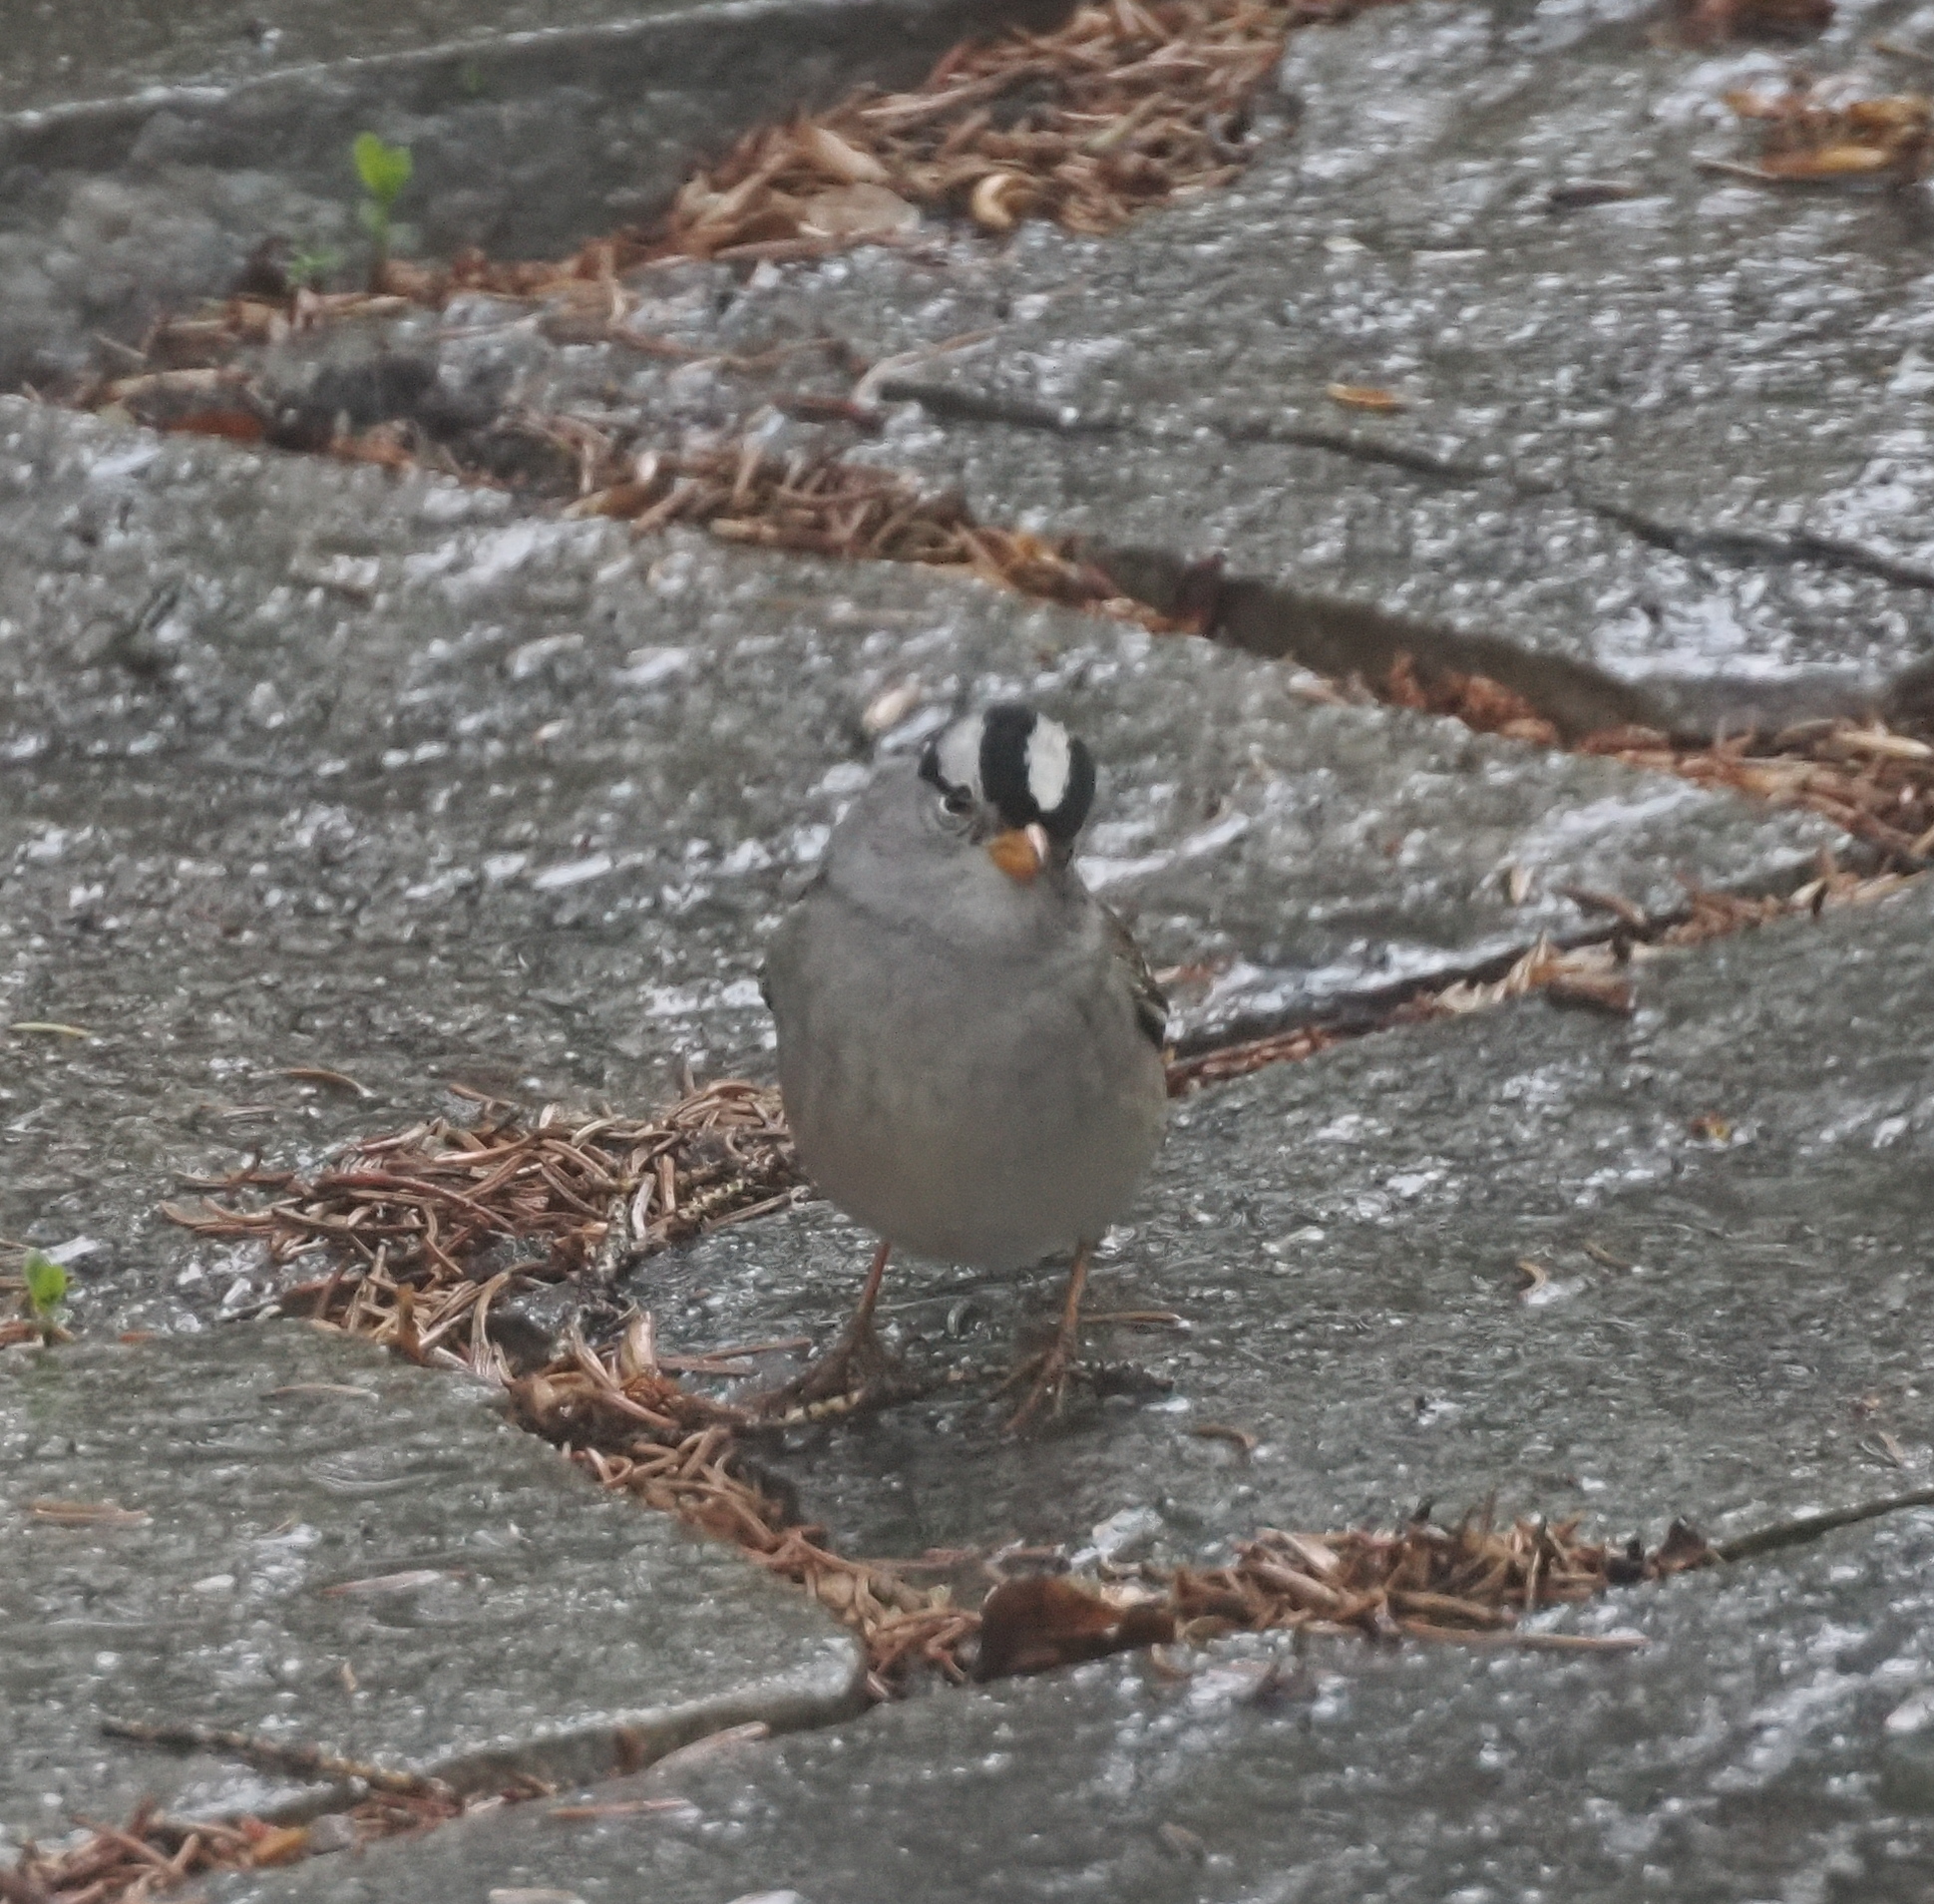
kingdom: Animalia
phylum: Chordata
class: Aves
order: Passeriformes
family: Passerellidae
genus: Zonotrichia
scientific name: Zonotrichia leucophrys
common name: White-crowned sparrow
